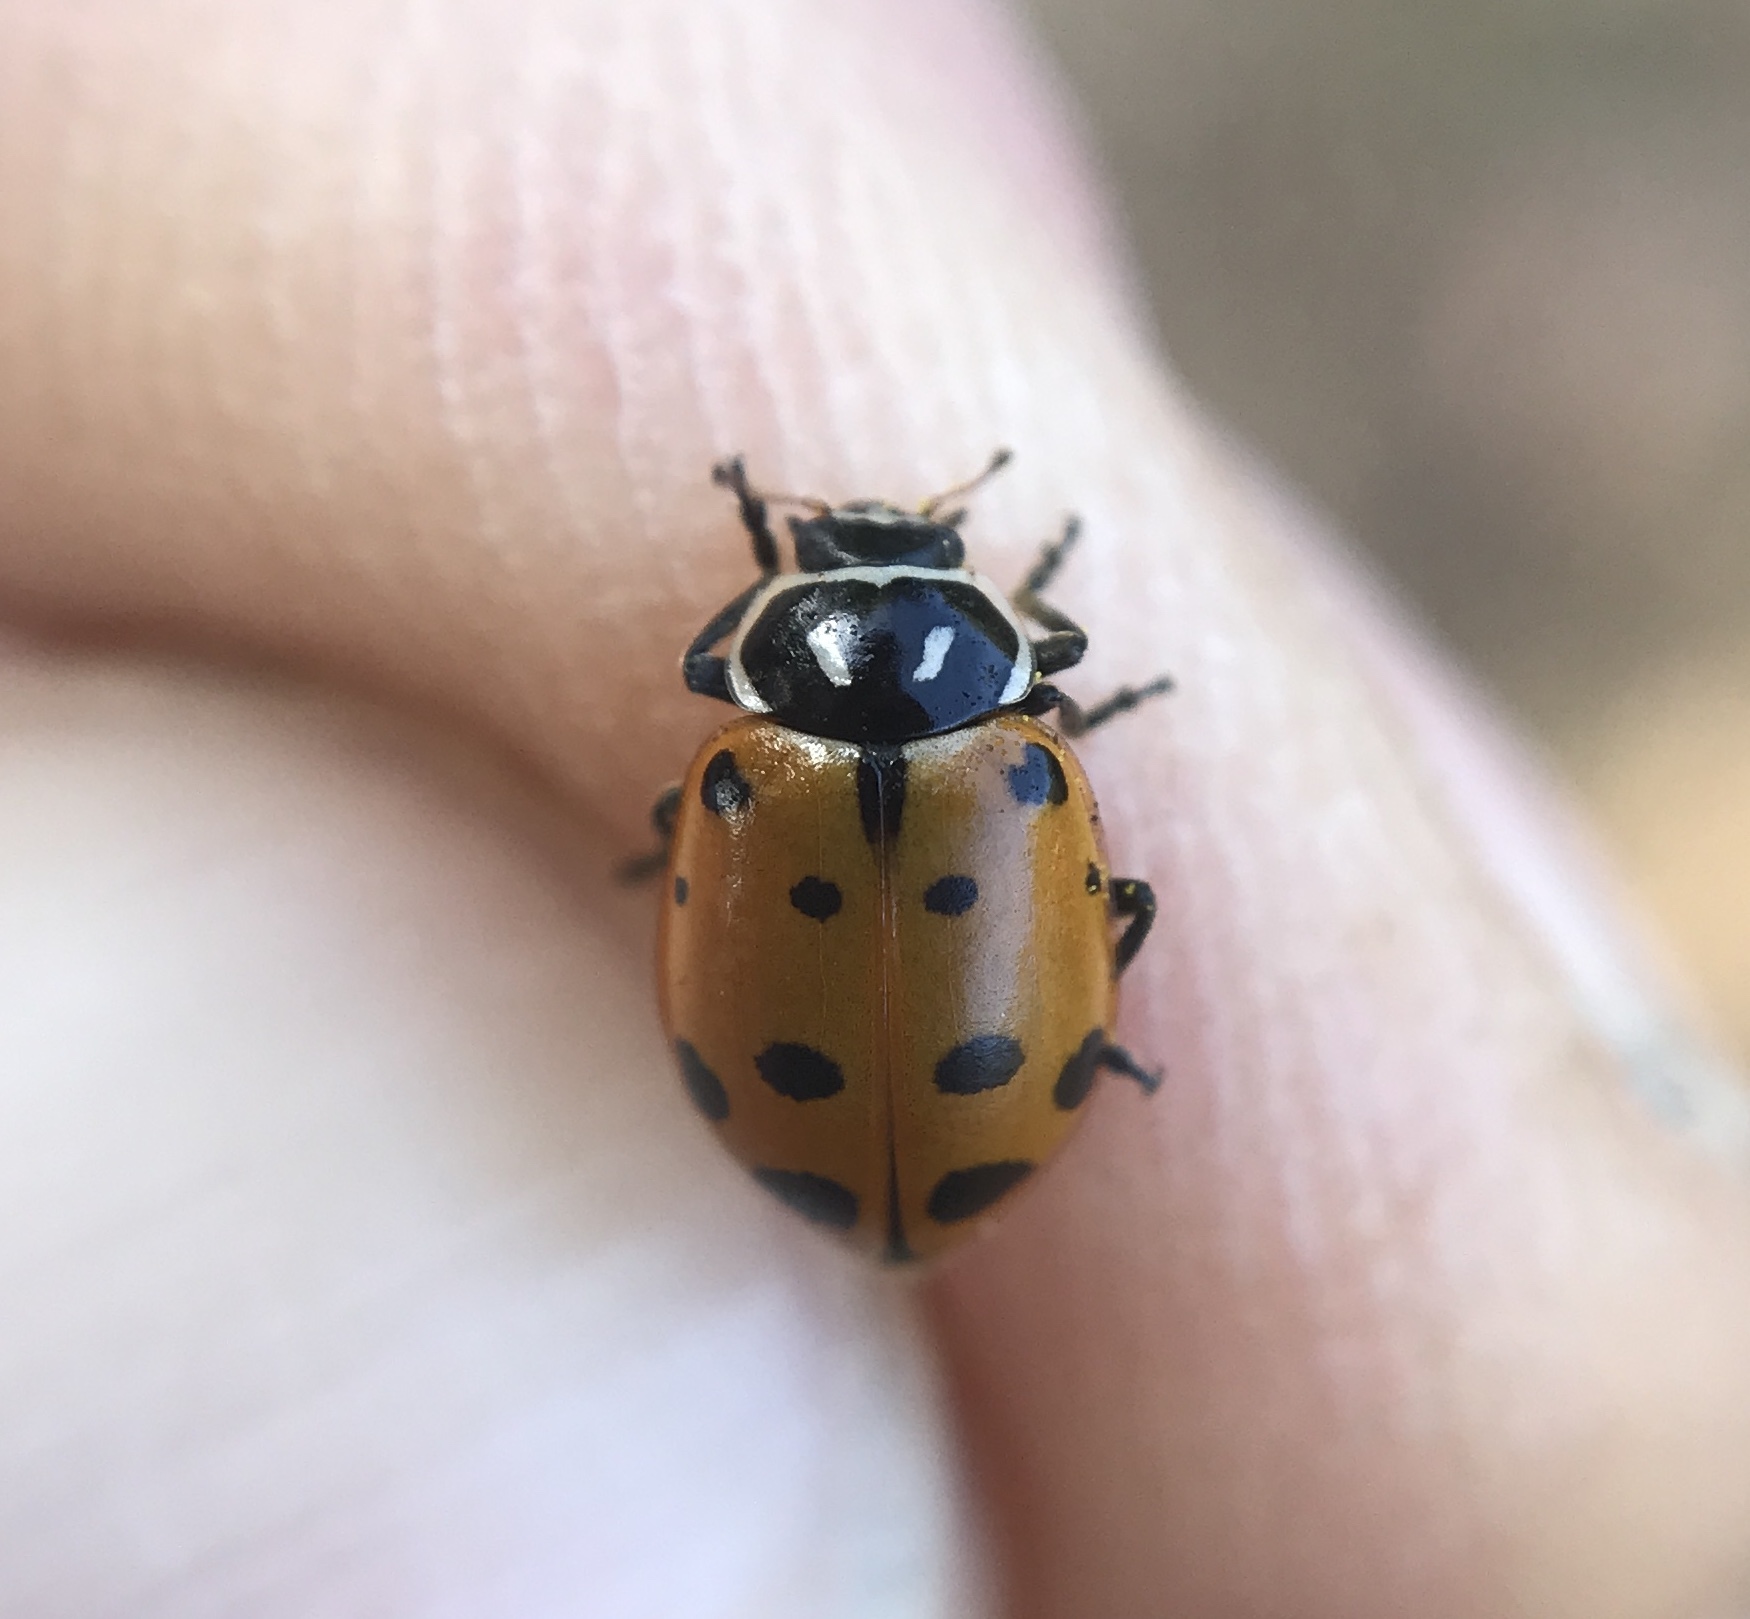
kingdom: Animalia
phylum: Arthropoda
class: Insecta
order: Coleoptera
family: Coccinellidae
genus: Hippodamia
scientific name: Hippodamia convergens
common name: Convergent lady beetle
